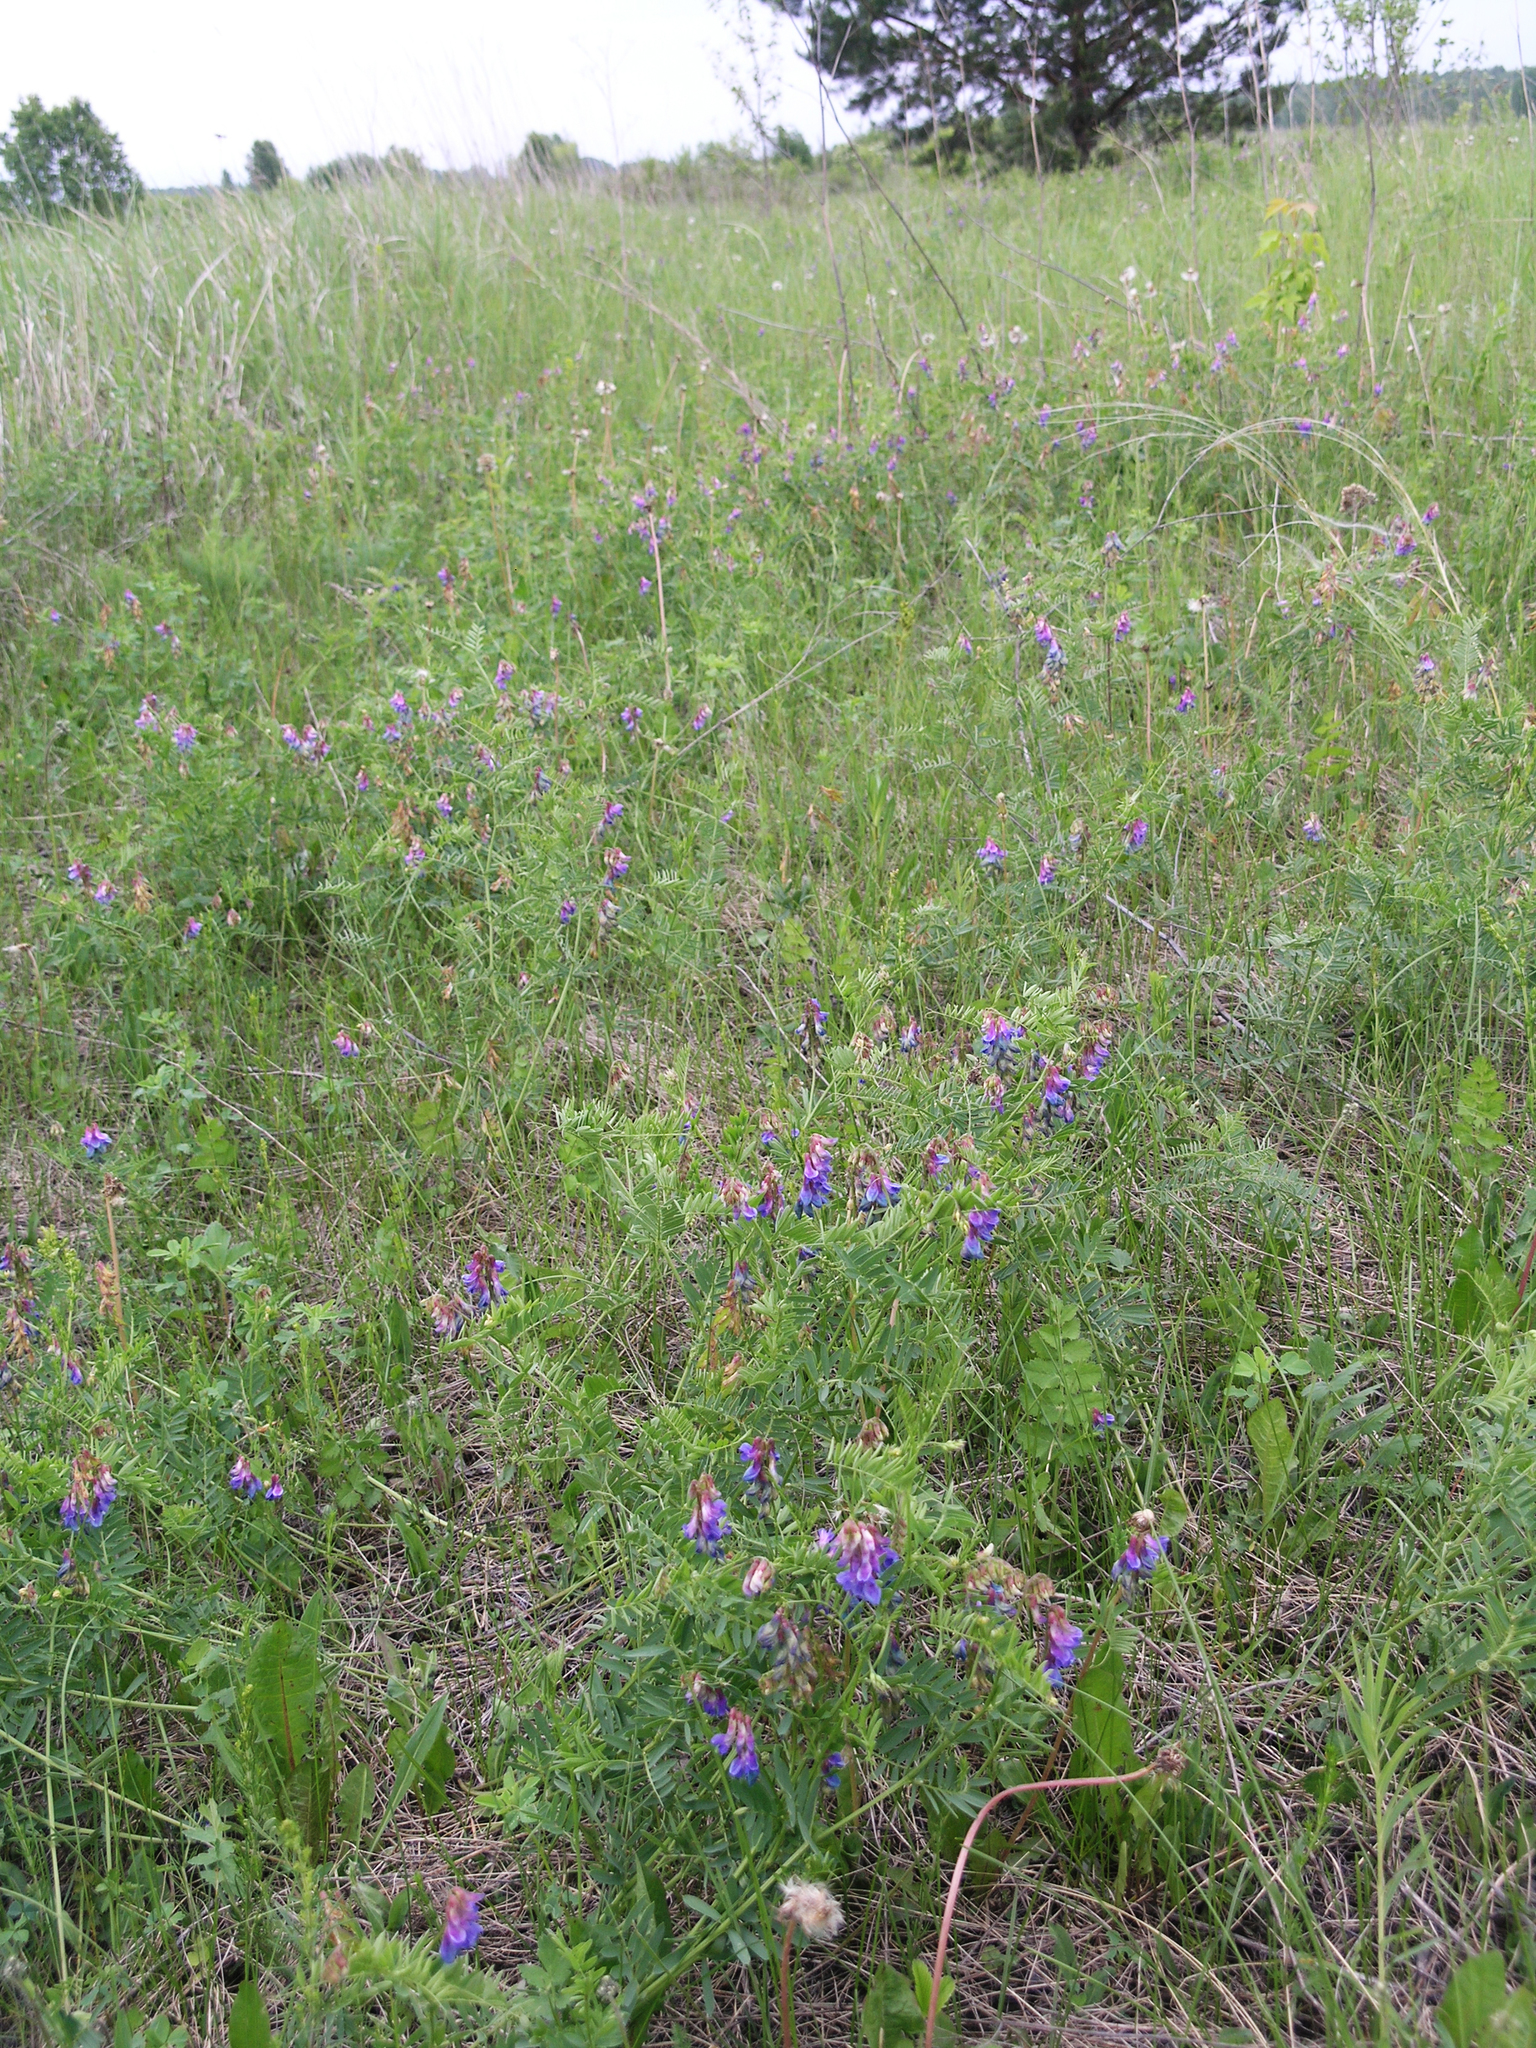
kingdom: Plantae
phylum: Tracheophyta
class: Magnoliopsida
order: Fabales
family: Fabaceae
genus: Vicia
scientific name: Vicia multicaulis
